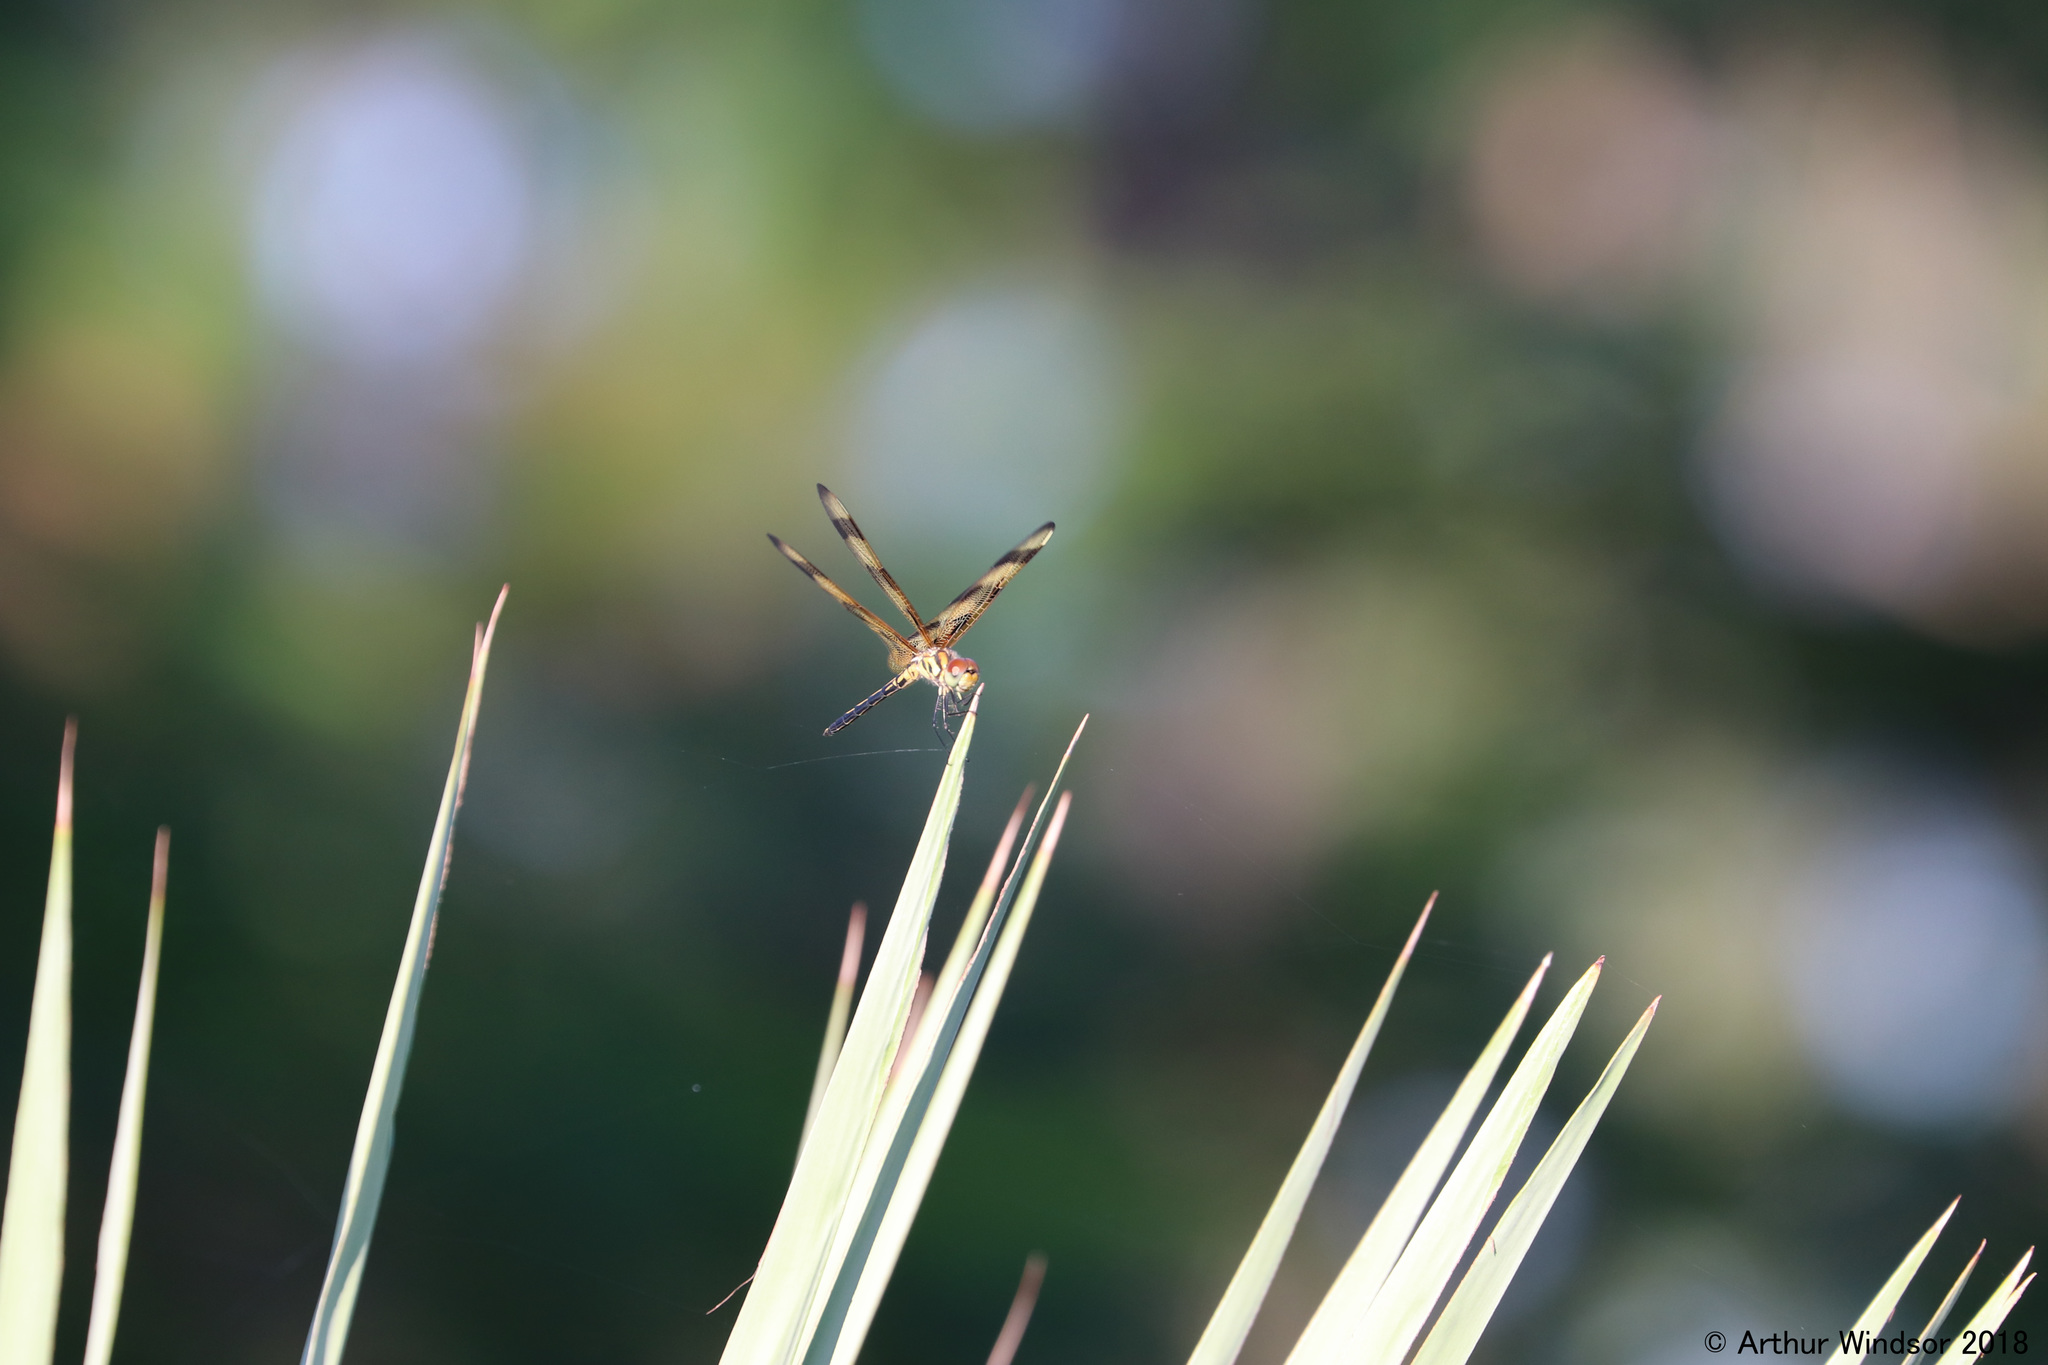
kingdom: Animalia
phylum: Arthropoda
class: Insecta
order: Odonata
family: Libellulidae
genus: Celithemis
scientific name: Celithemis eponina
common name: Halloween pennant
